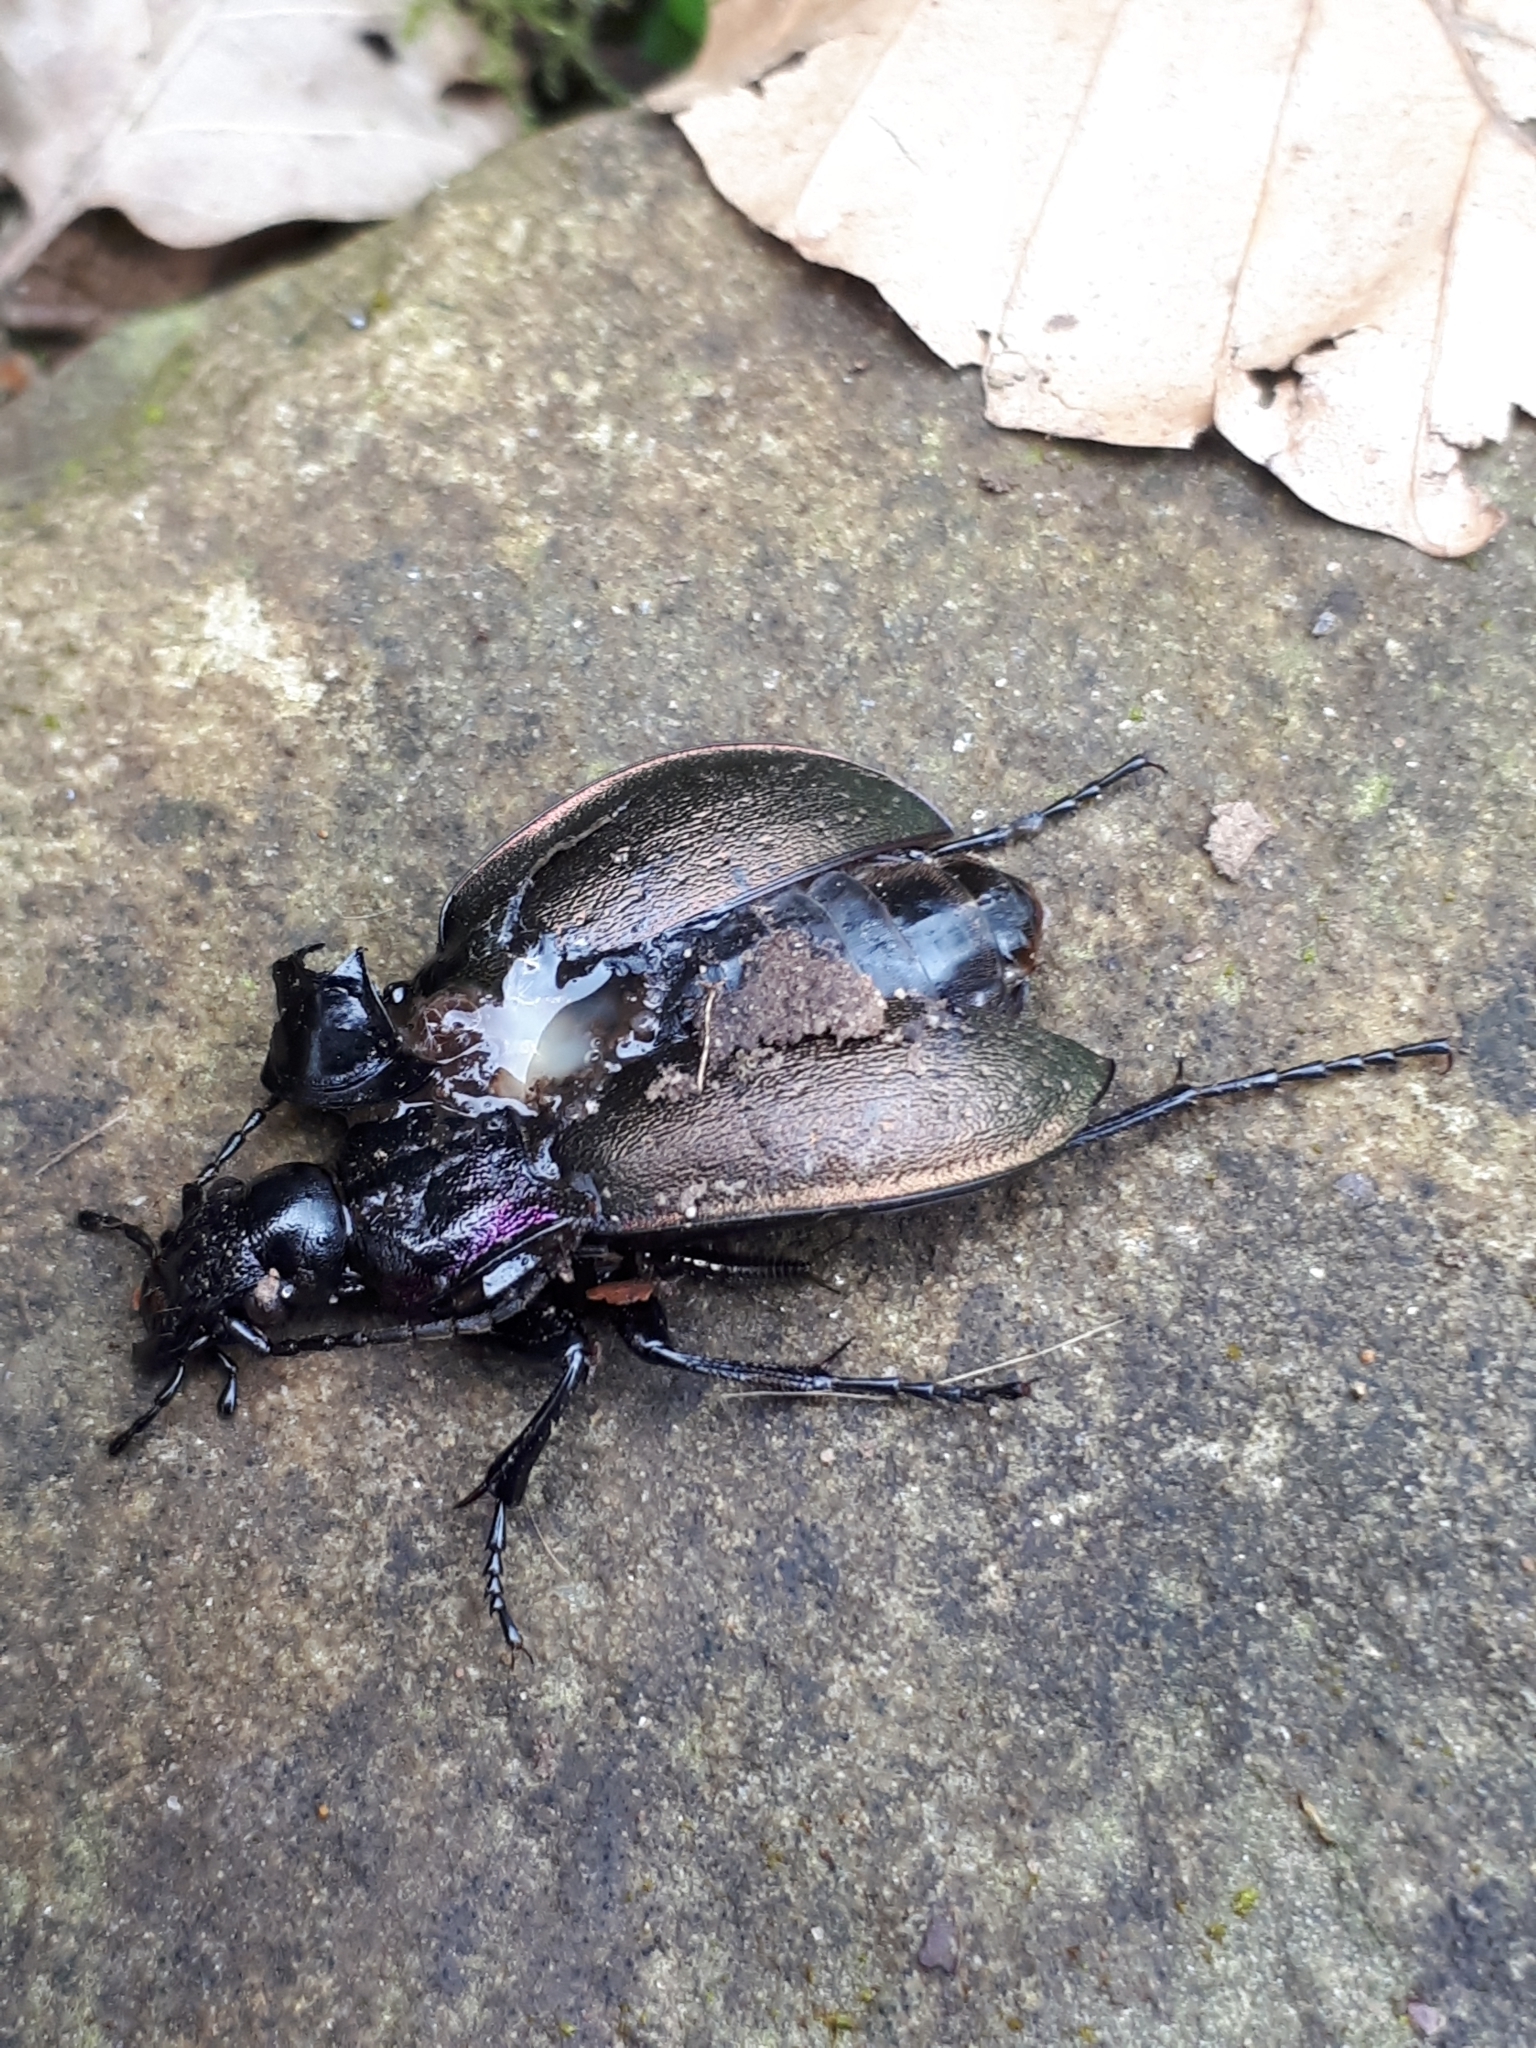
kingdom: Animalia
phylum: Arthropoda
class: Insecta
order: Coleoptera
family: Carabidae
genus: Carabus
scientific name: Carabus nemoralis
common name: European ground beetle
